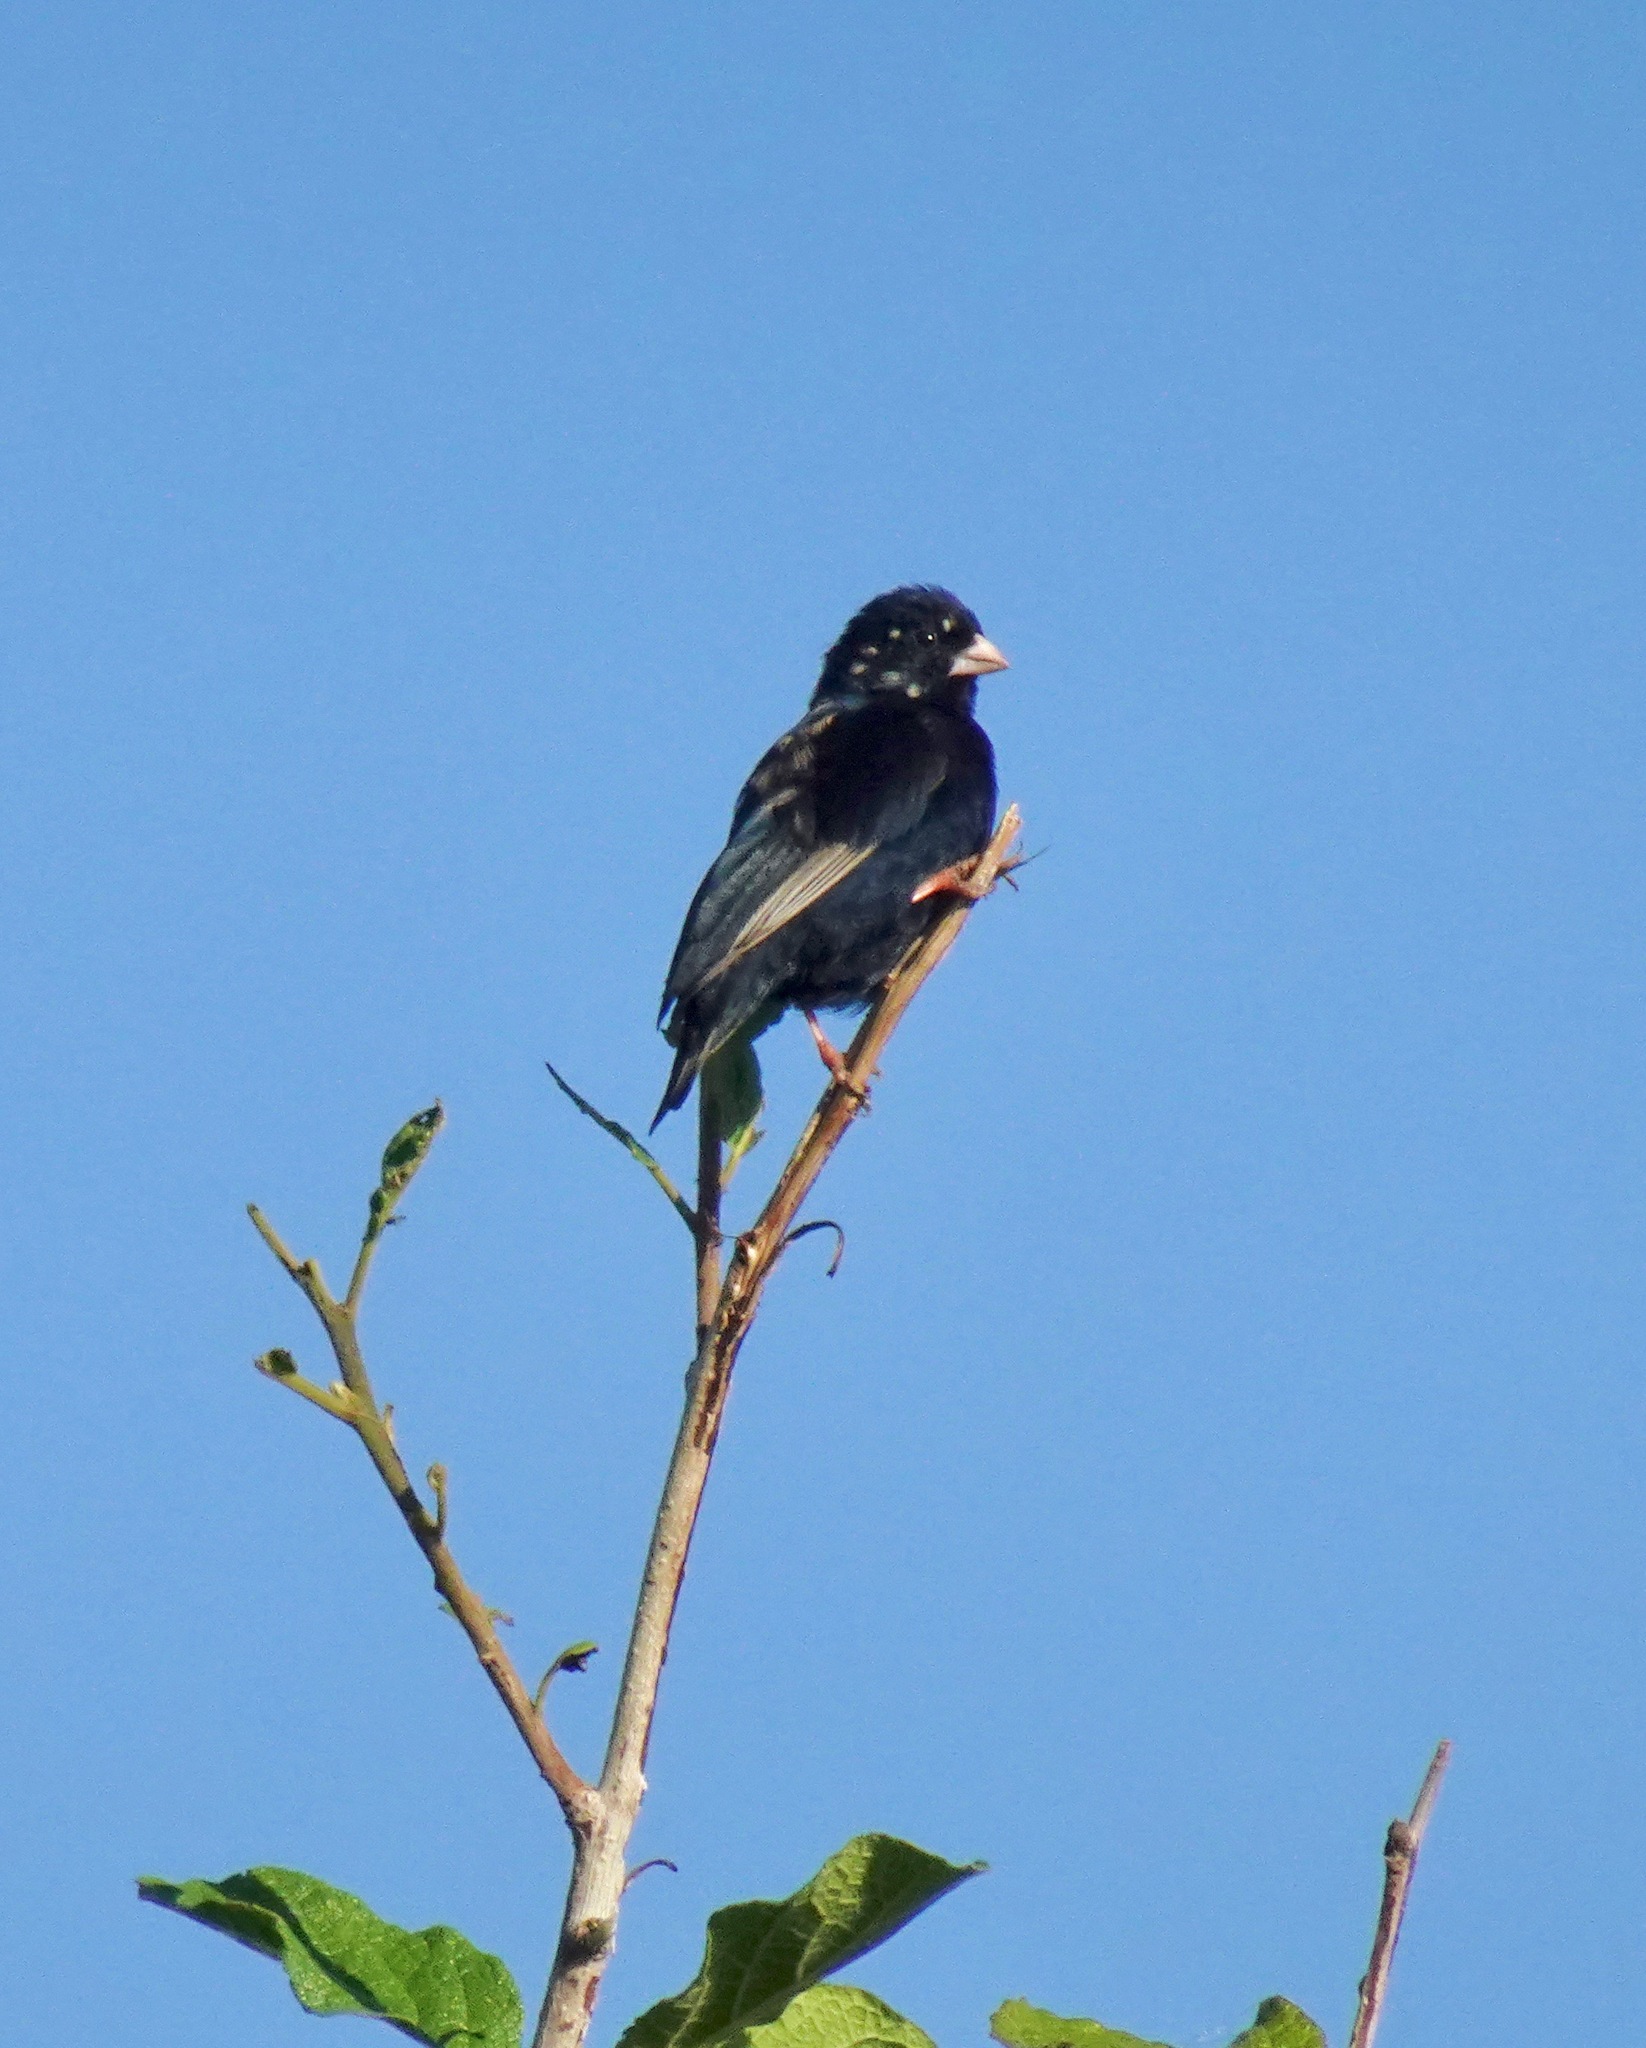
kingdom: Animalia
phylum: Chordata
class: Aves
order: Passeriformes
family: Viduidae
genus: Vidua
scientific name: Vidua chalybeata
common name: Village indigobird
